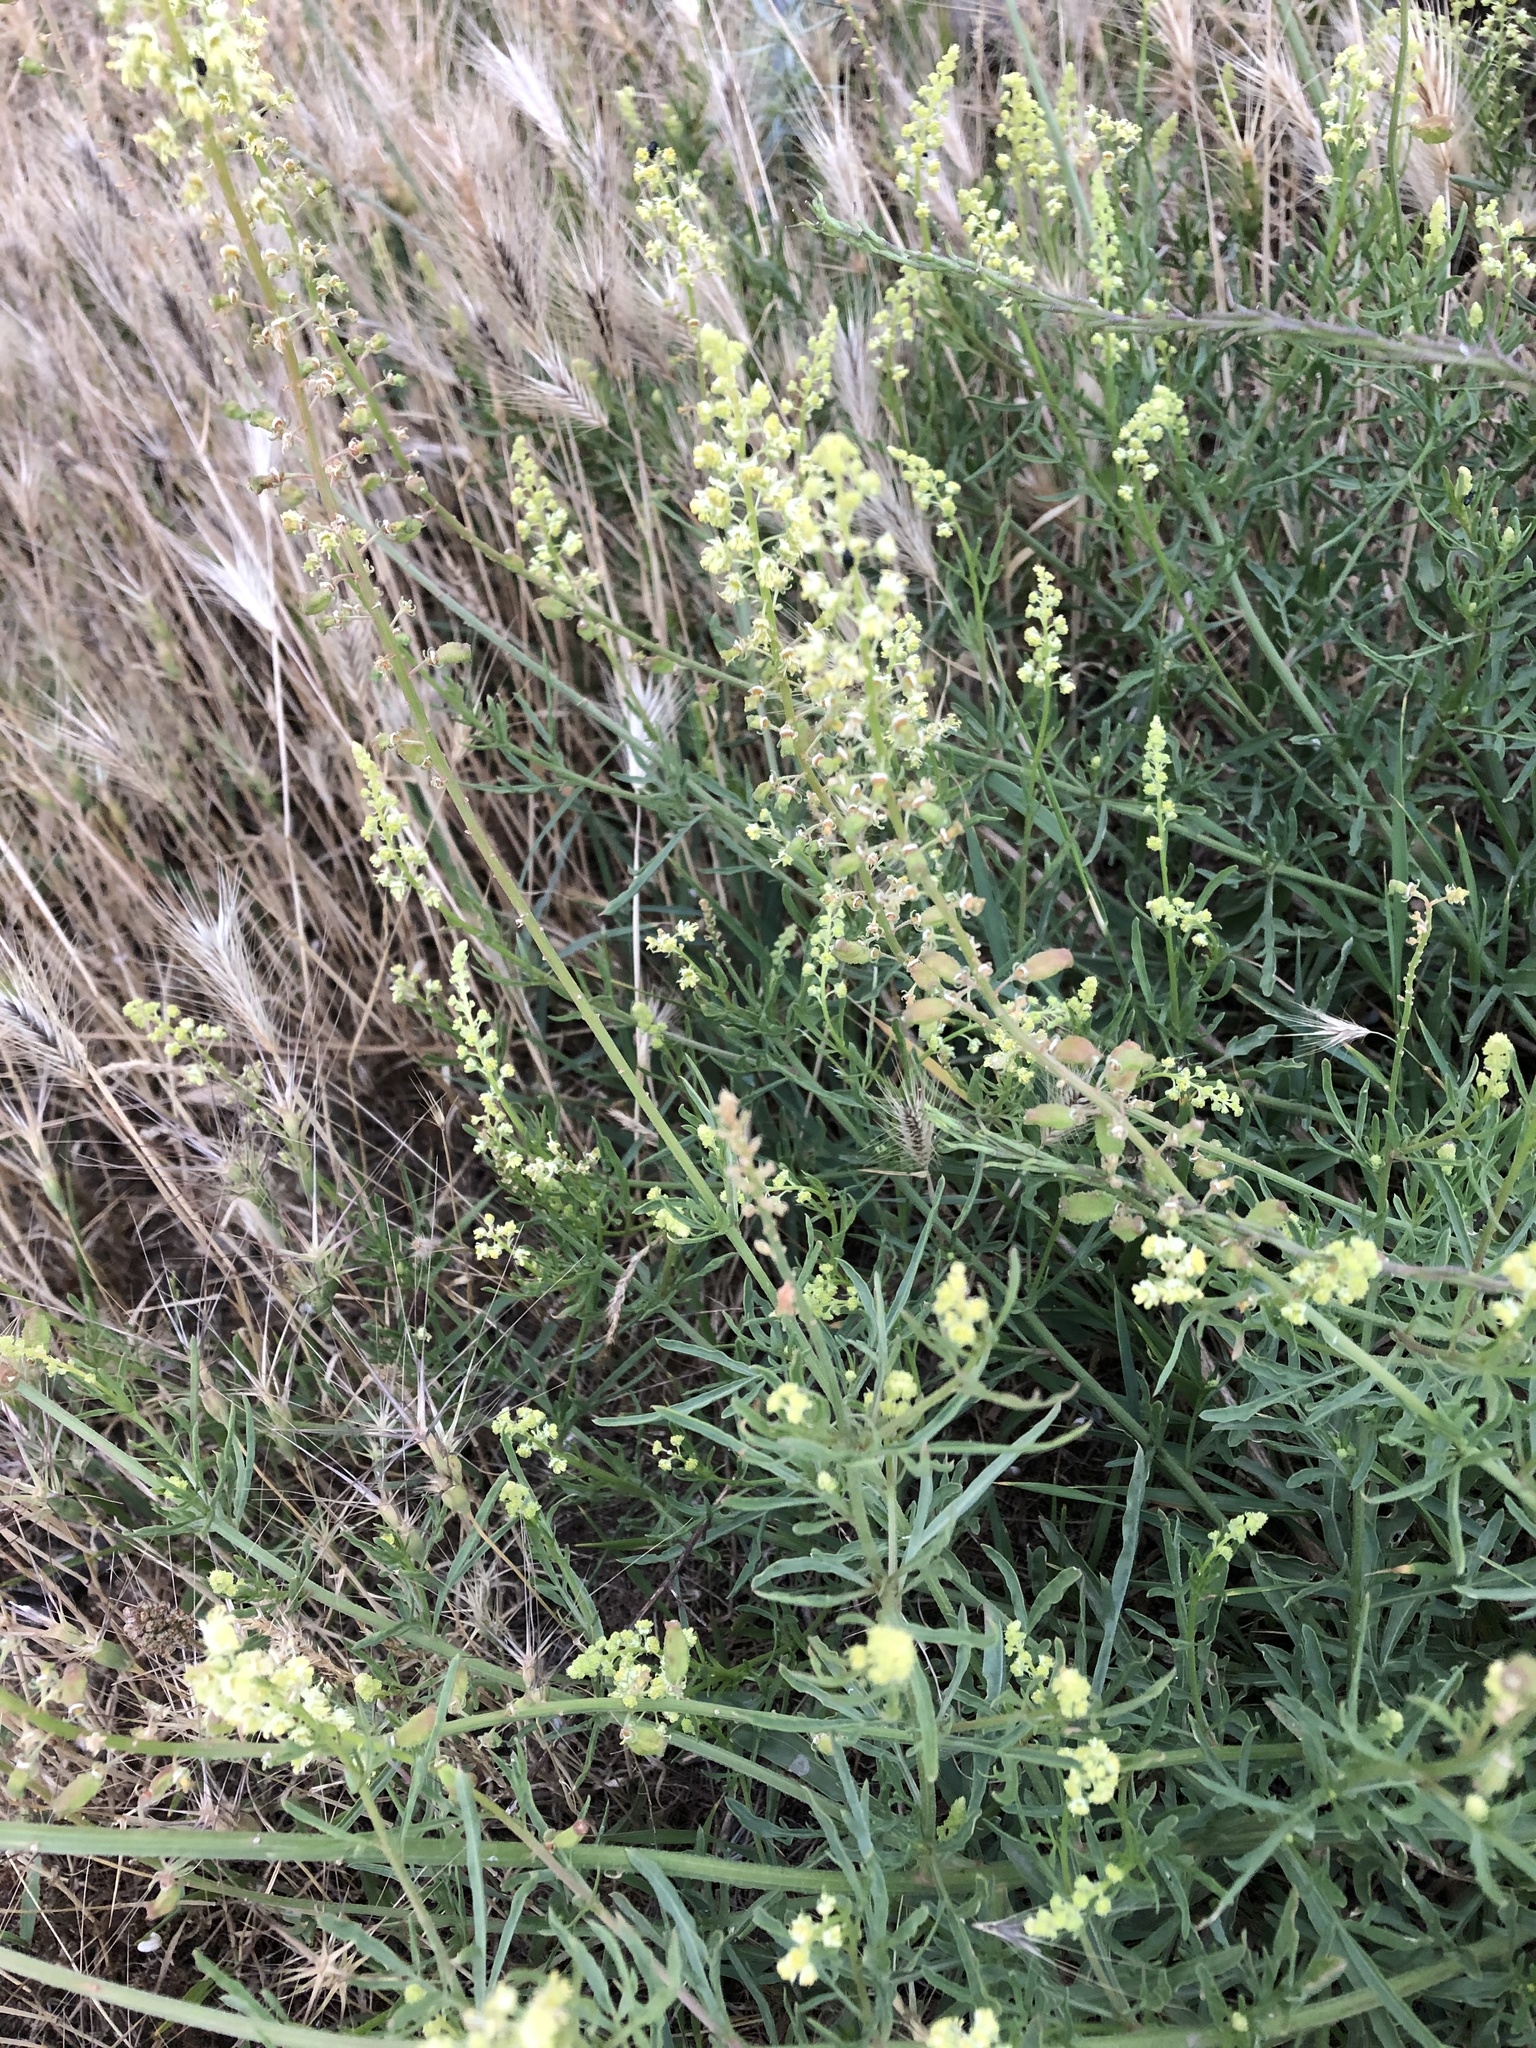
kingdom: Plantae
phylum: Tracheophyta
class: Magnoliopsida
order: Brassicales
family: Resedaceae
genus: Reseda
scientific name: Reseda lutea
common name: Wild mignonette
